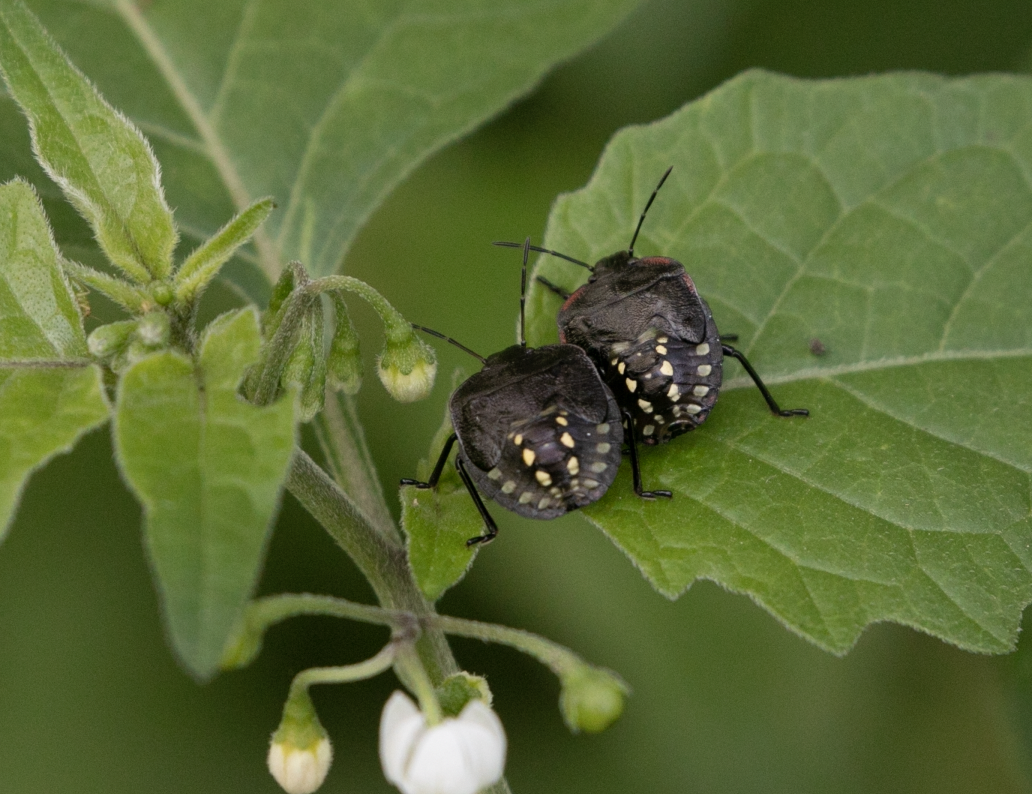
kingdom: Animalia
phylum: Arthropoda
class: Insecta
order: Hemiptera
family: Pentatomidae
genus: Nezara
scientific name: Nezara viridula
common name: Southern green stink bug
